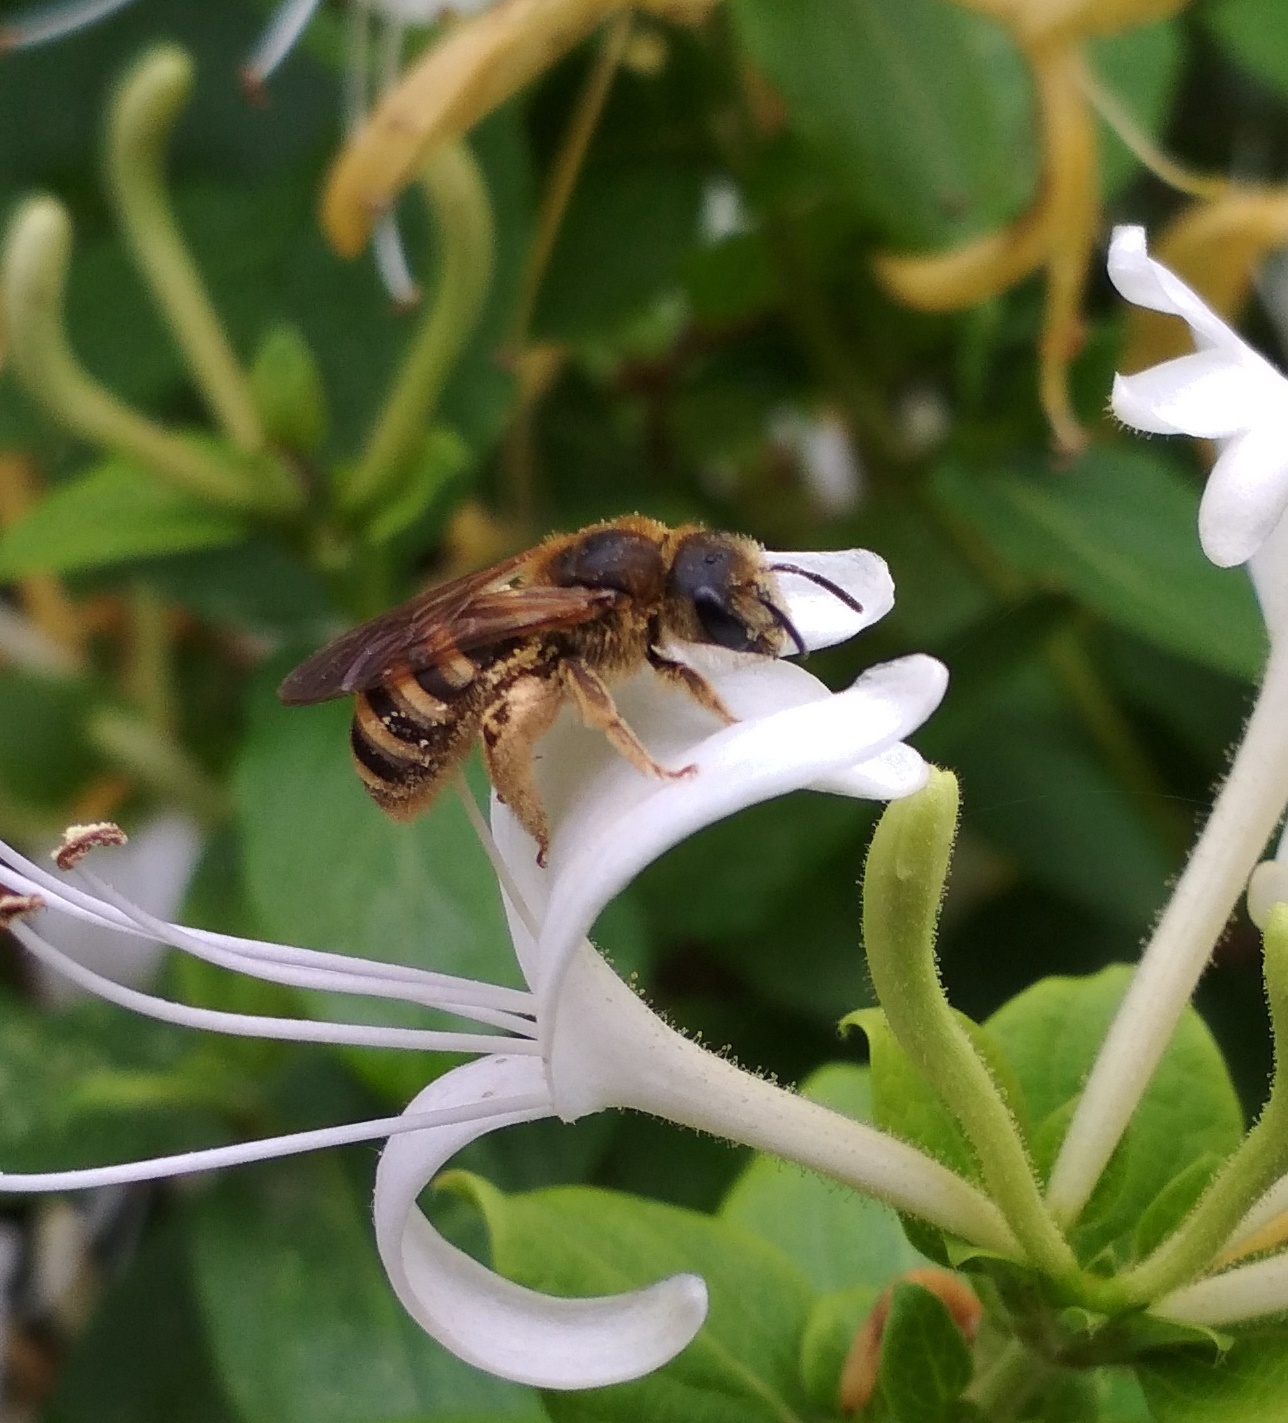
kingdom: Animalia
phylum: Arthropoda
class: Insecta
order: Hymenoptera
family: Halictidae
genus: Halictus
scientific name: Halictus scabiosae
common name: Great banded furrow bee
